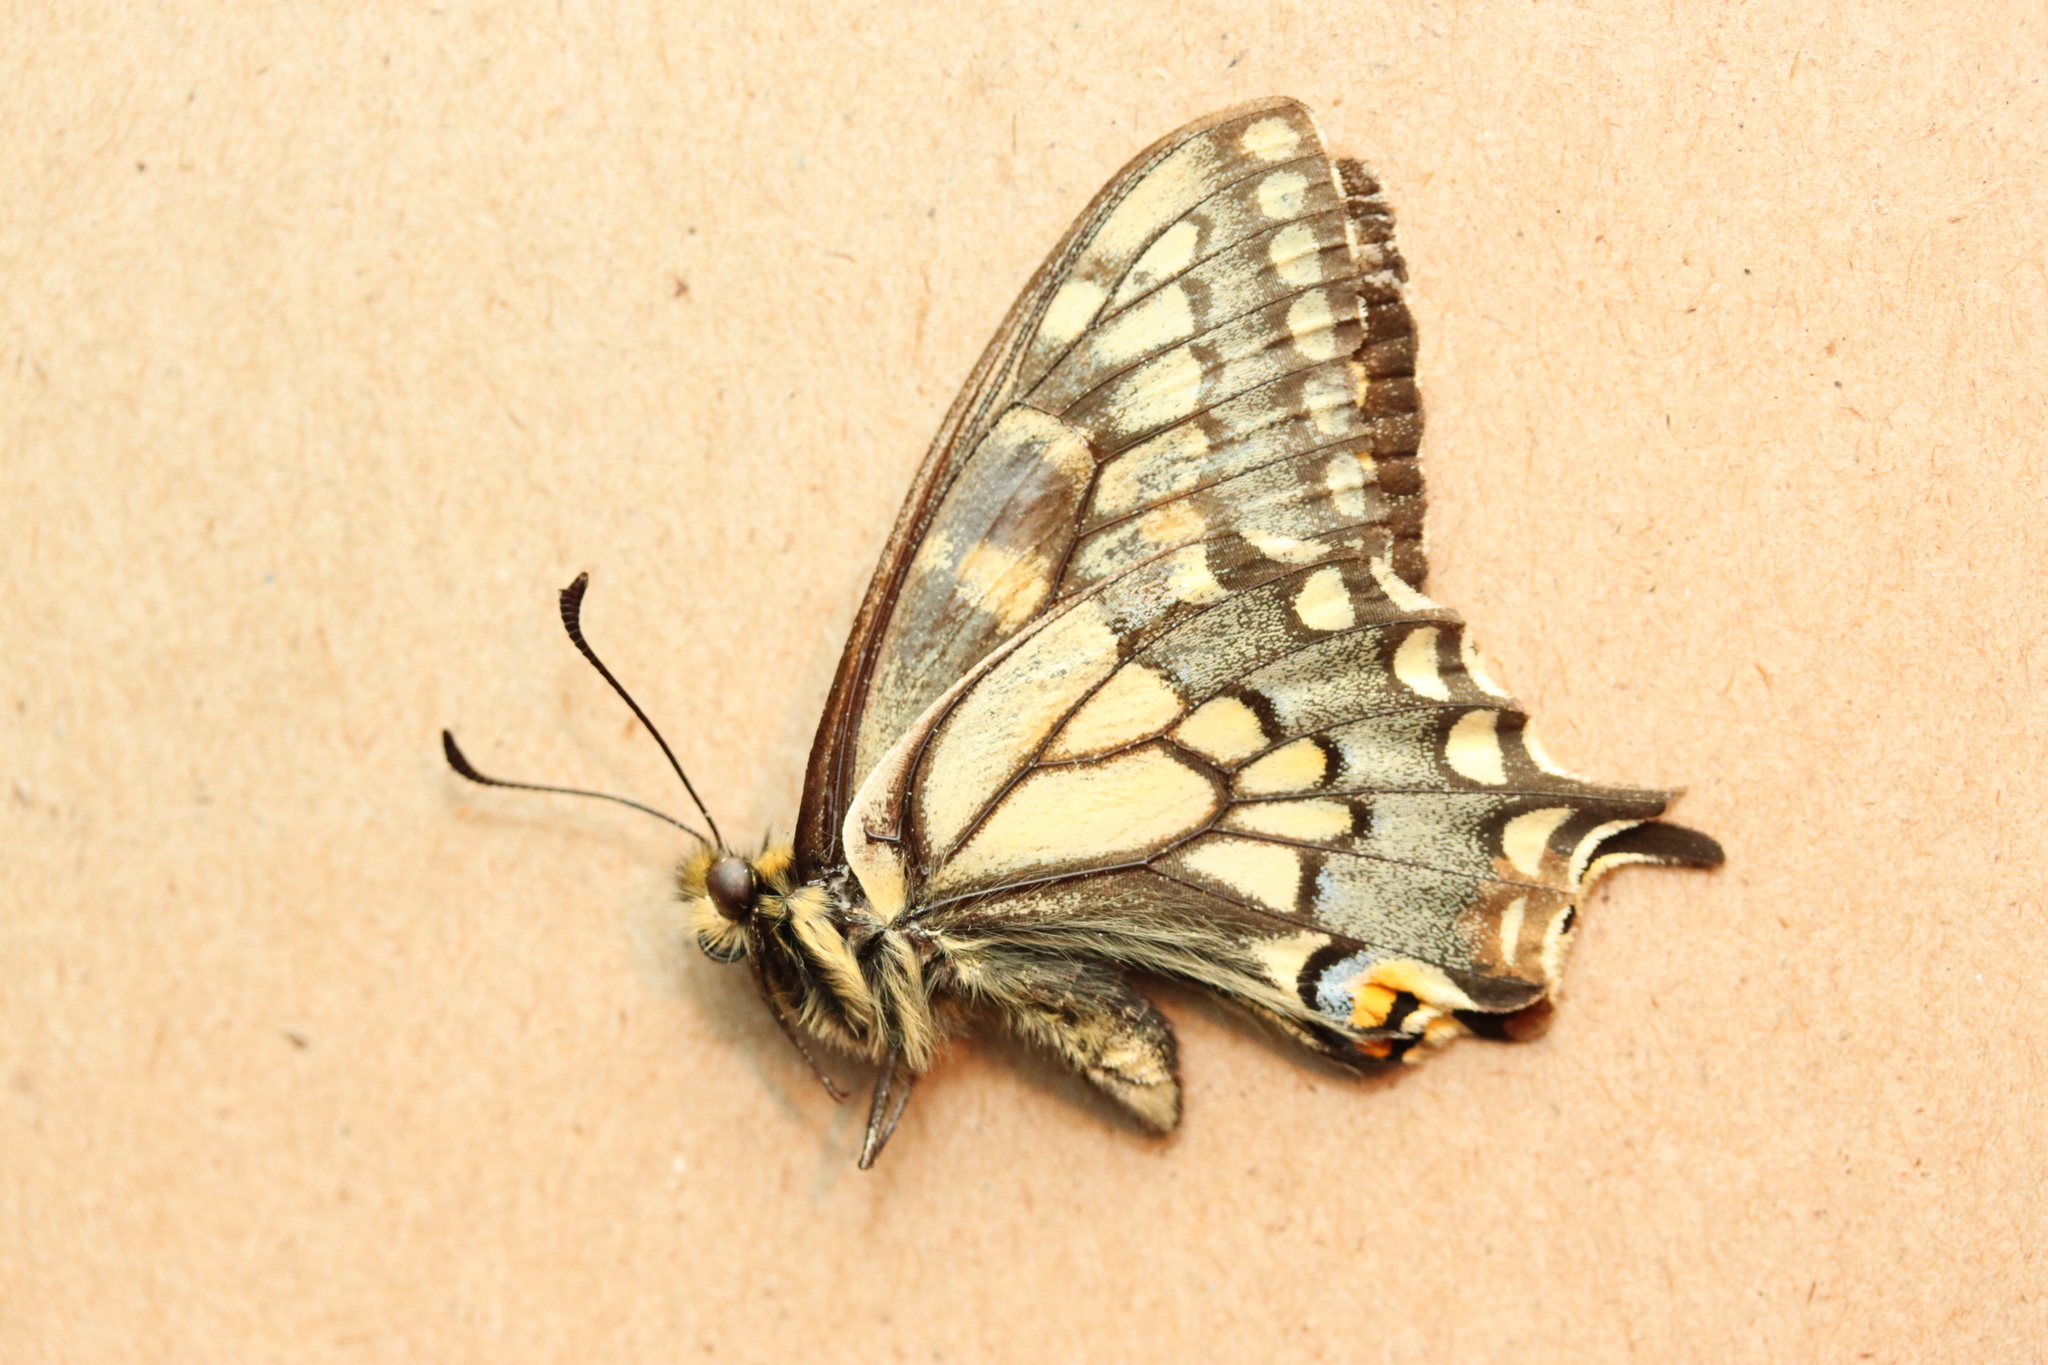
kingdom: Animalia
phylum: Arthropoda
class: Insecta
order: Lepidoptera
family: Papilionidae
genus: Papilio
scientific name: Papilio machaon
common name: Swallowtail
